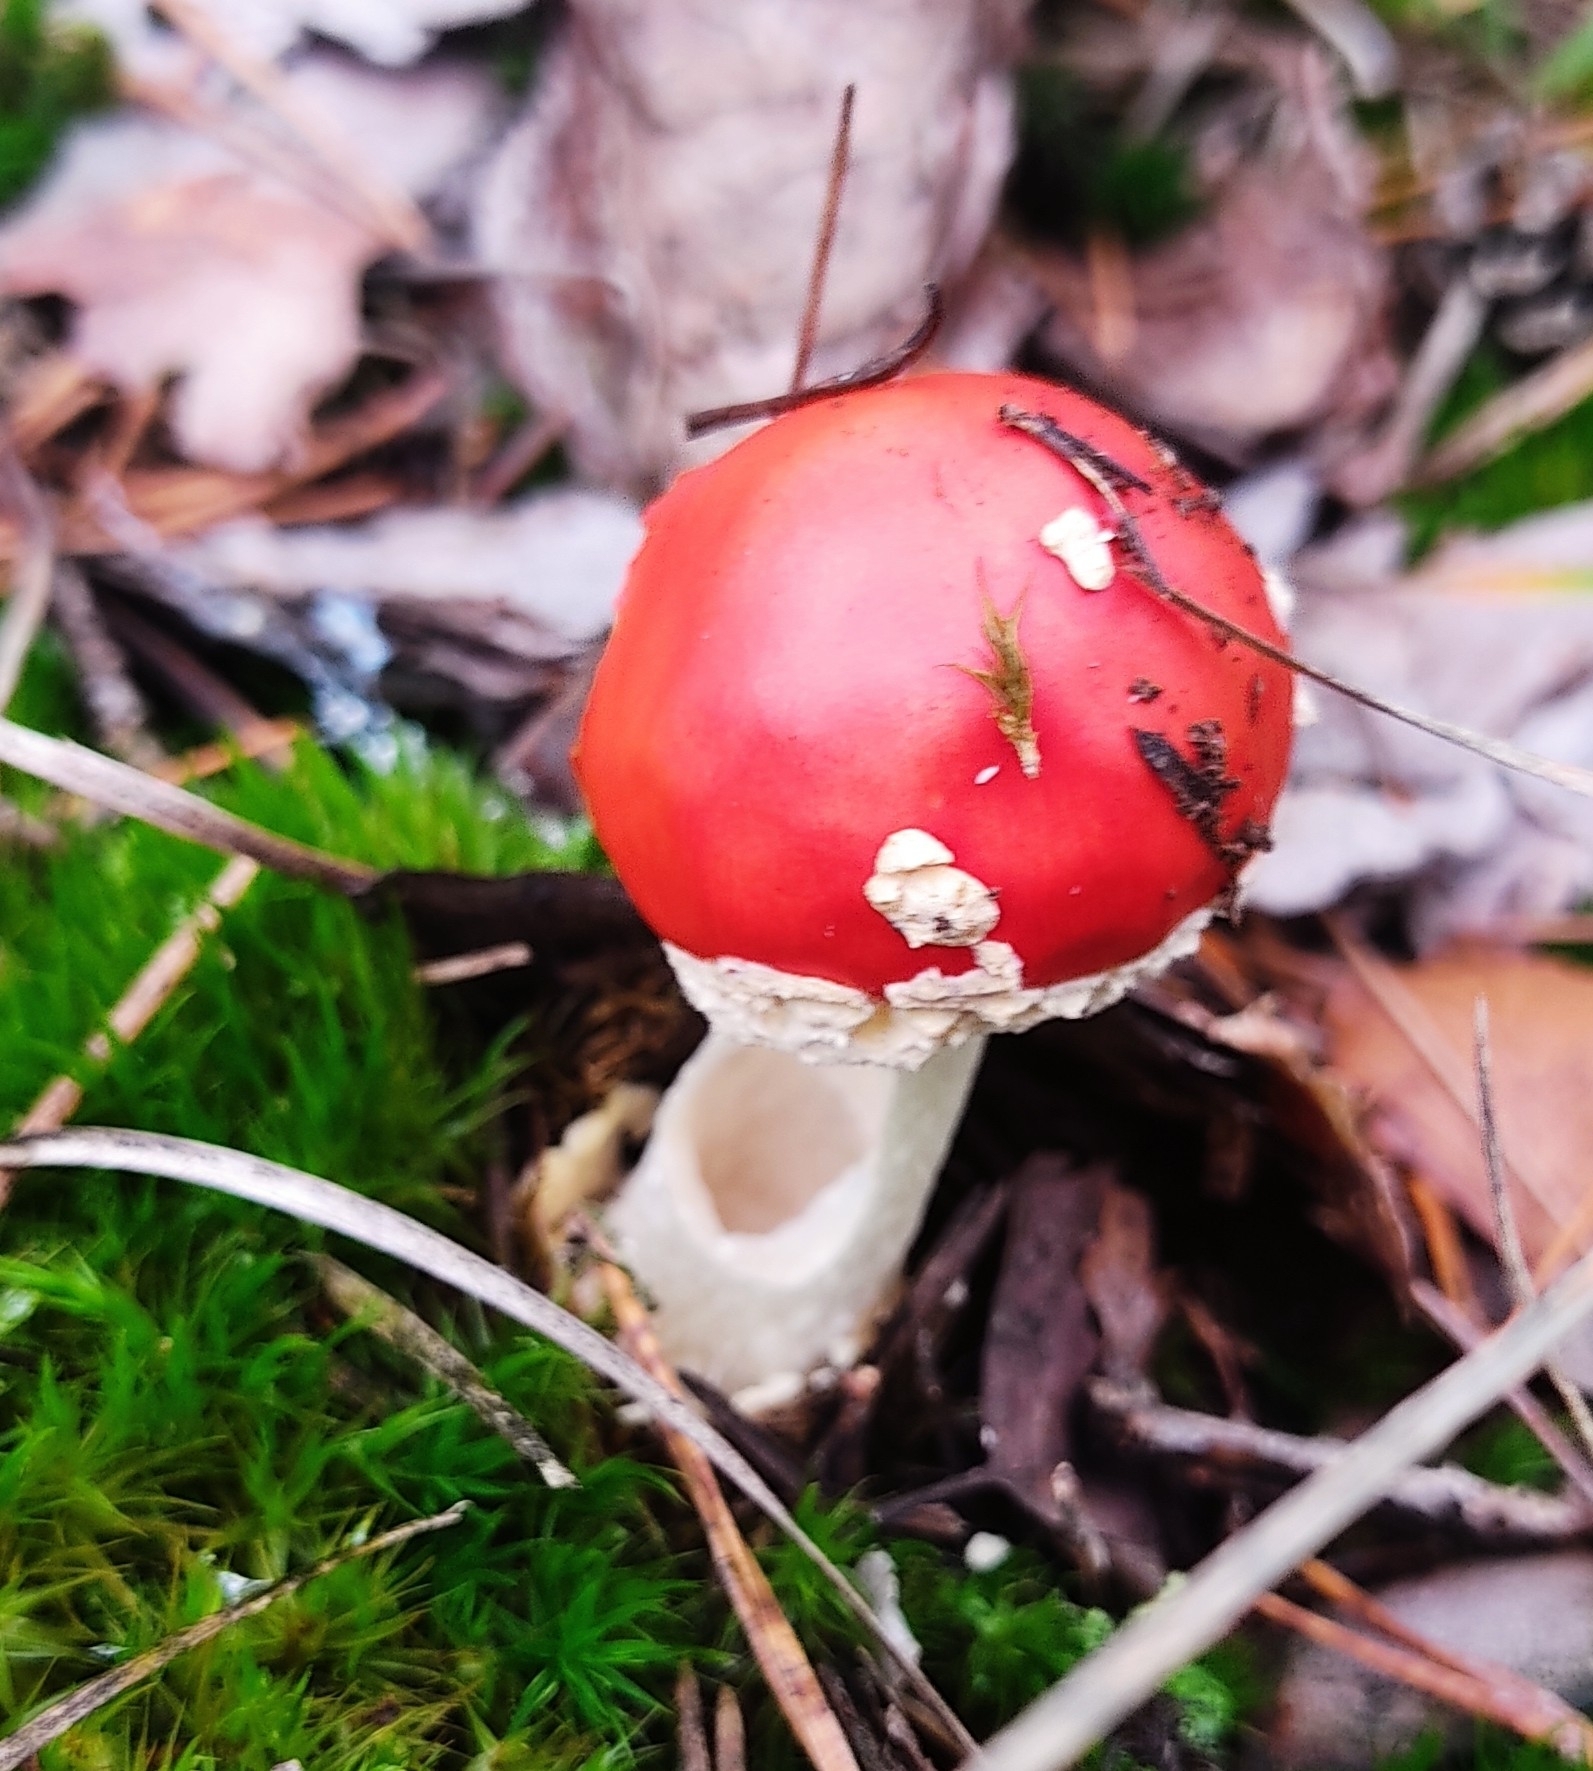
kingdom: Fungi
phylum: Basidiomycota
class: Agaricomycetes
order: Agaricales
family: Amanitaceae
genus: Amanita
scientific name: Amanita muscaria
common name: Fly agaric
